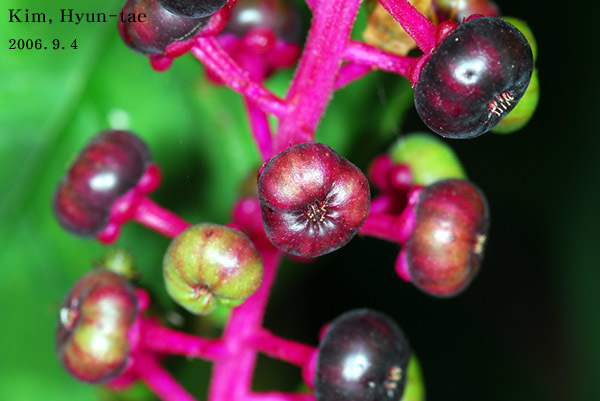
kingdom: Plantae
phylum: Tracheophyta
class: Magnoliopsida
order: Caryophyllales
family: Phytolaccaceae
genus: Phytolacca
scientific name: Phytolacca americana
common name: American pokeweed
